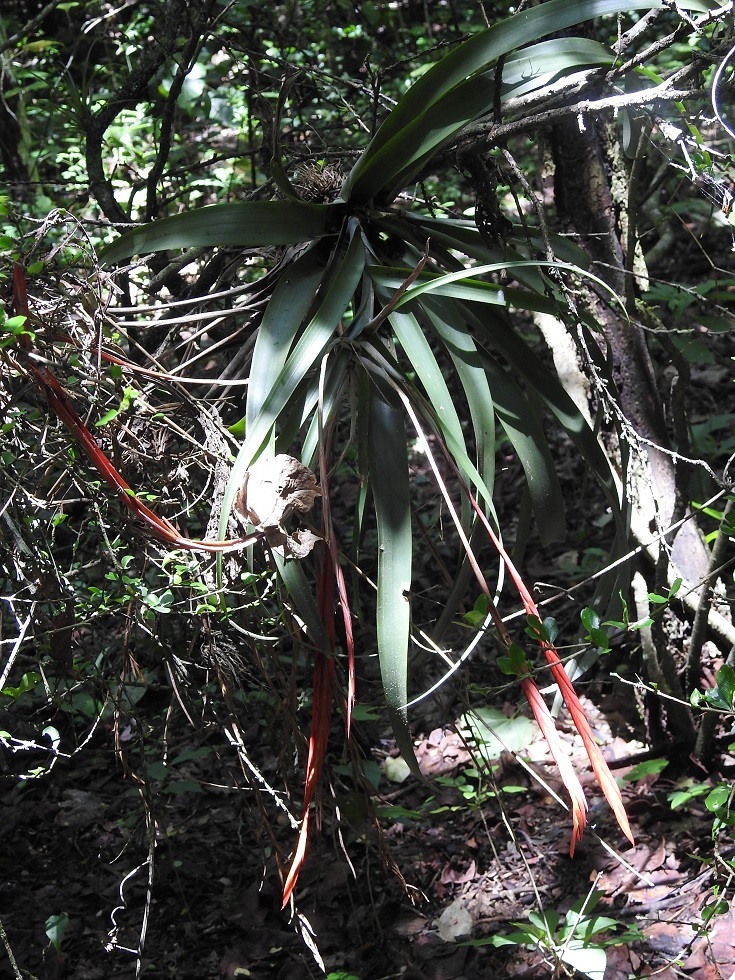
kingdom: Plantae
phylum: Tracheophyta
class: Liliopsida
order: Poales
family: Bromeliaceae
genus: Tillandsia
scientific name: Tillandsia flabellata
